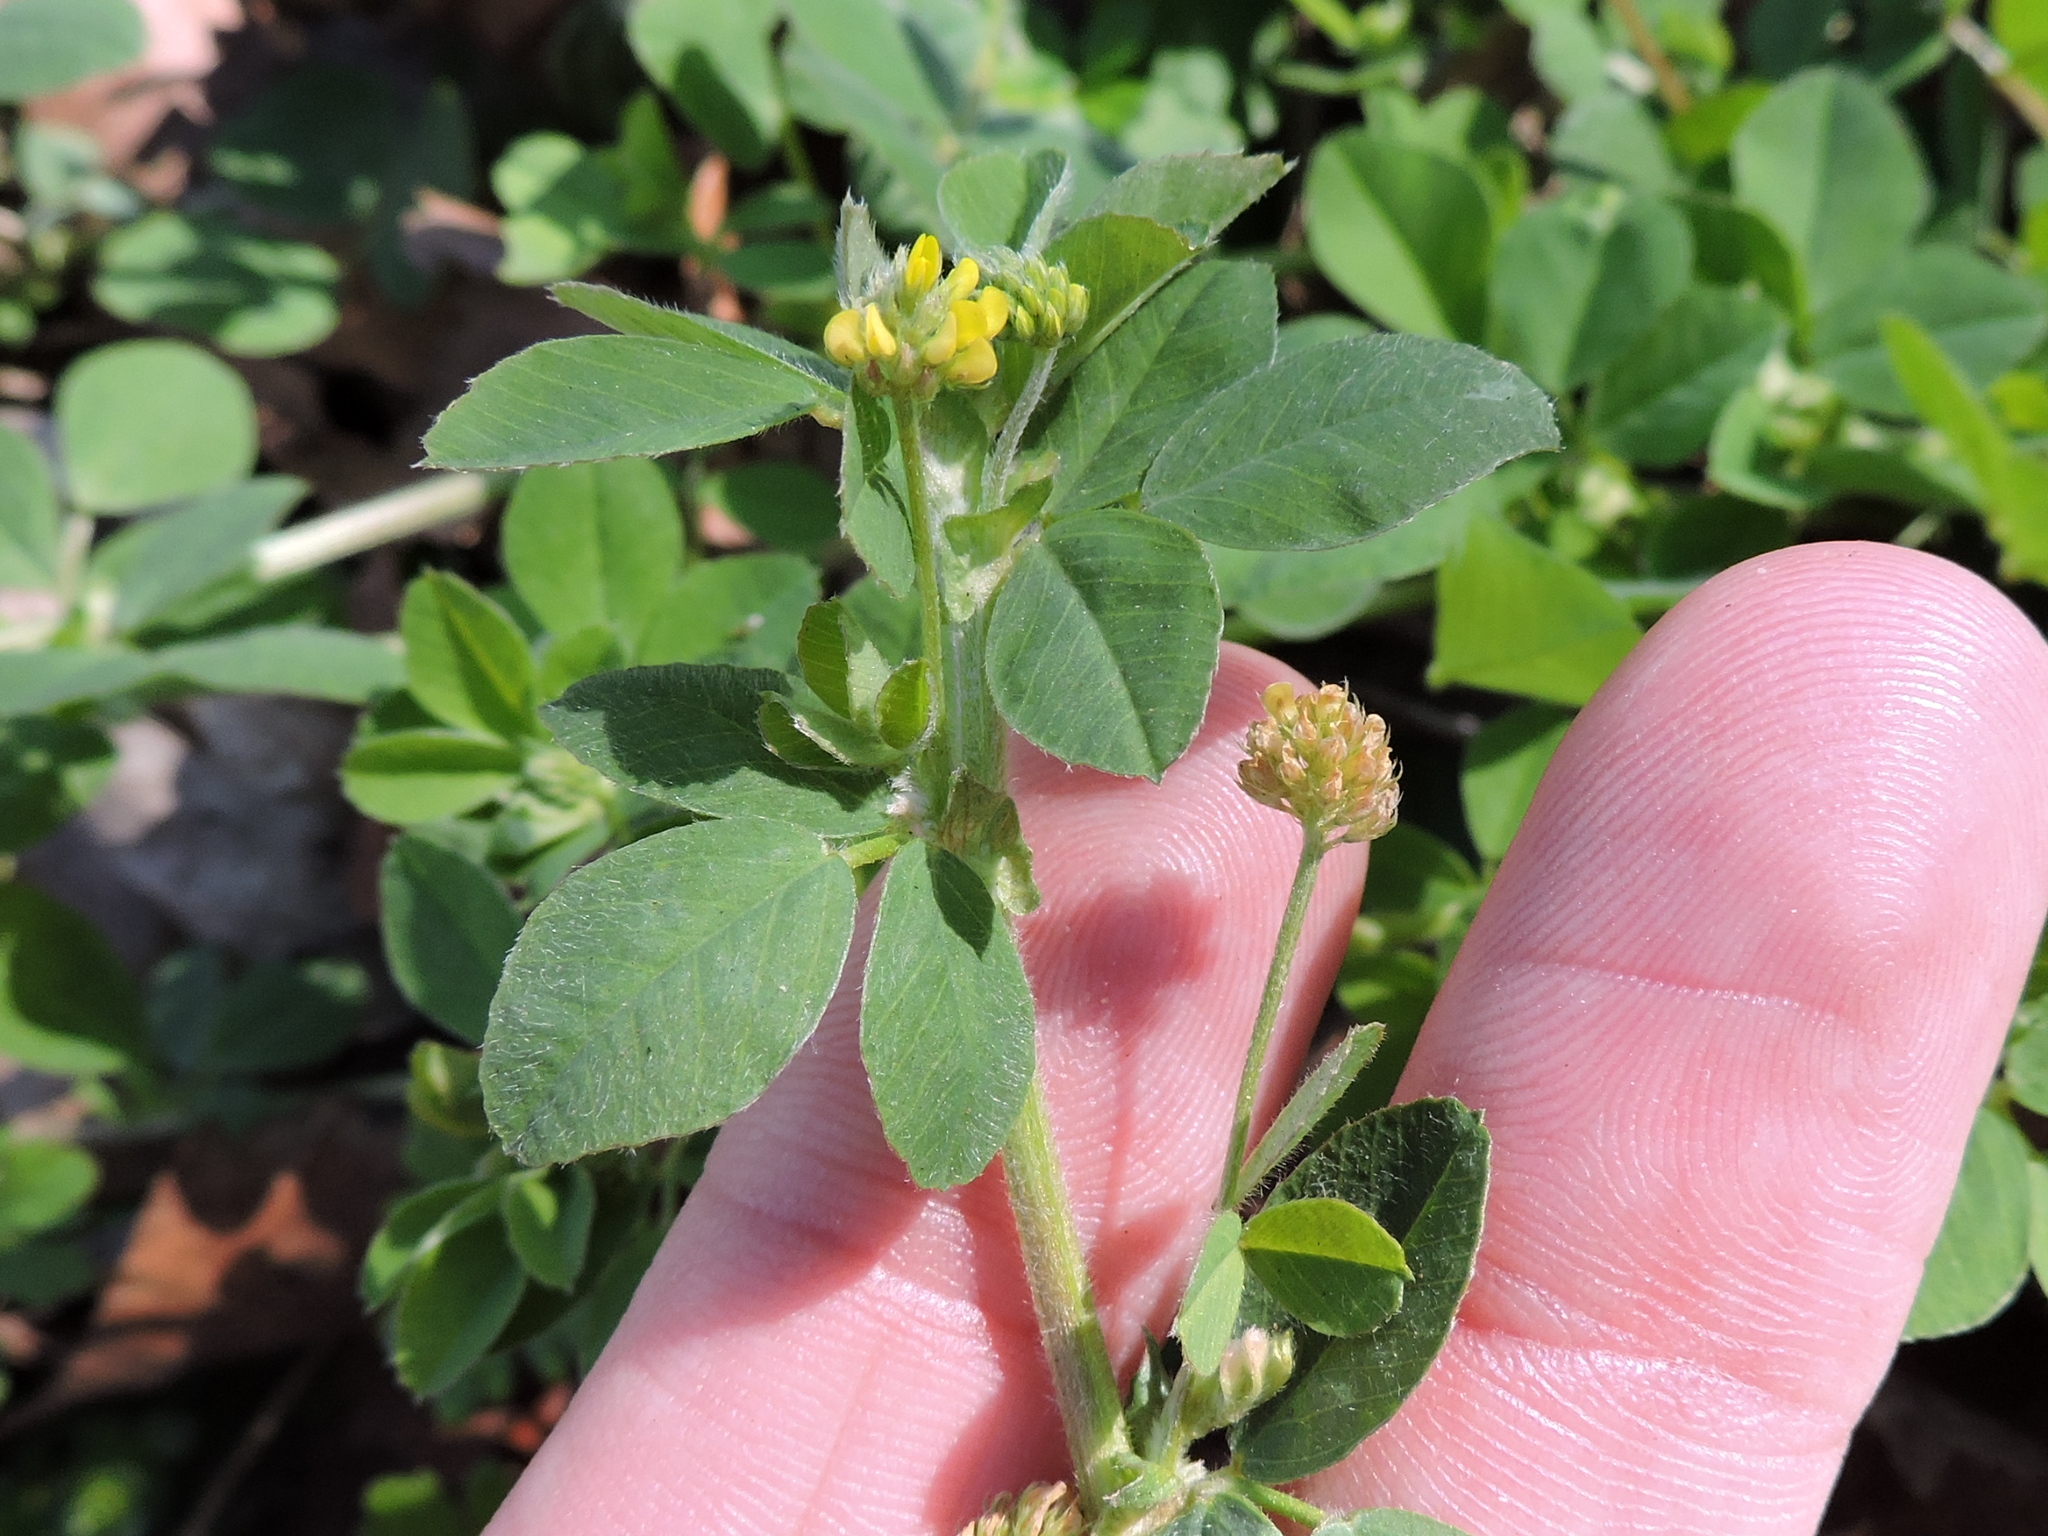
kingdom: Plantae
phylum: Tracheophyta
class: Magnoliopsida
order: Fabales
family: Fabaceae
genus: Medicago
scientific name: Medicago lupulina
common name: Black medick
